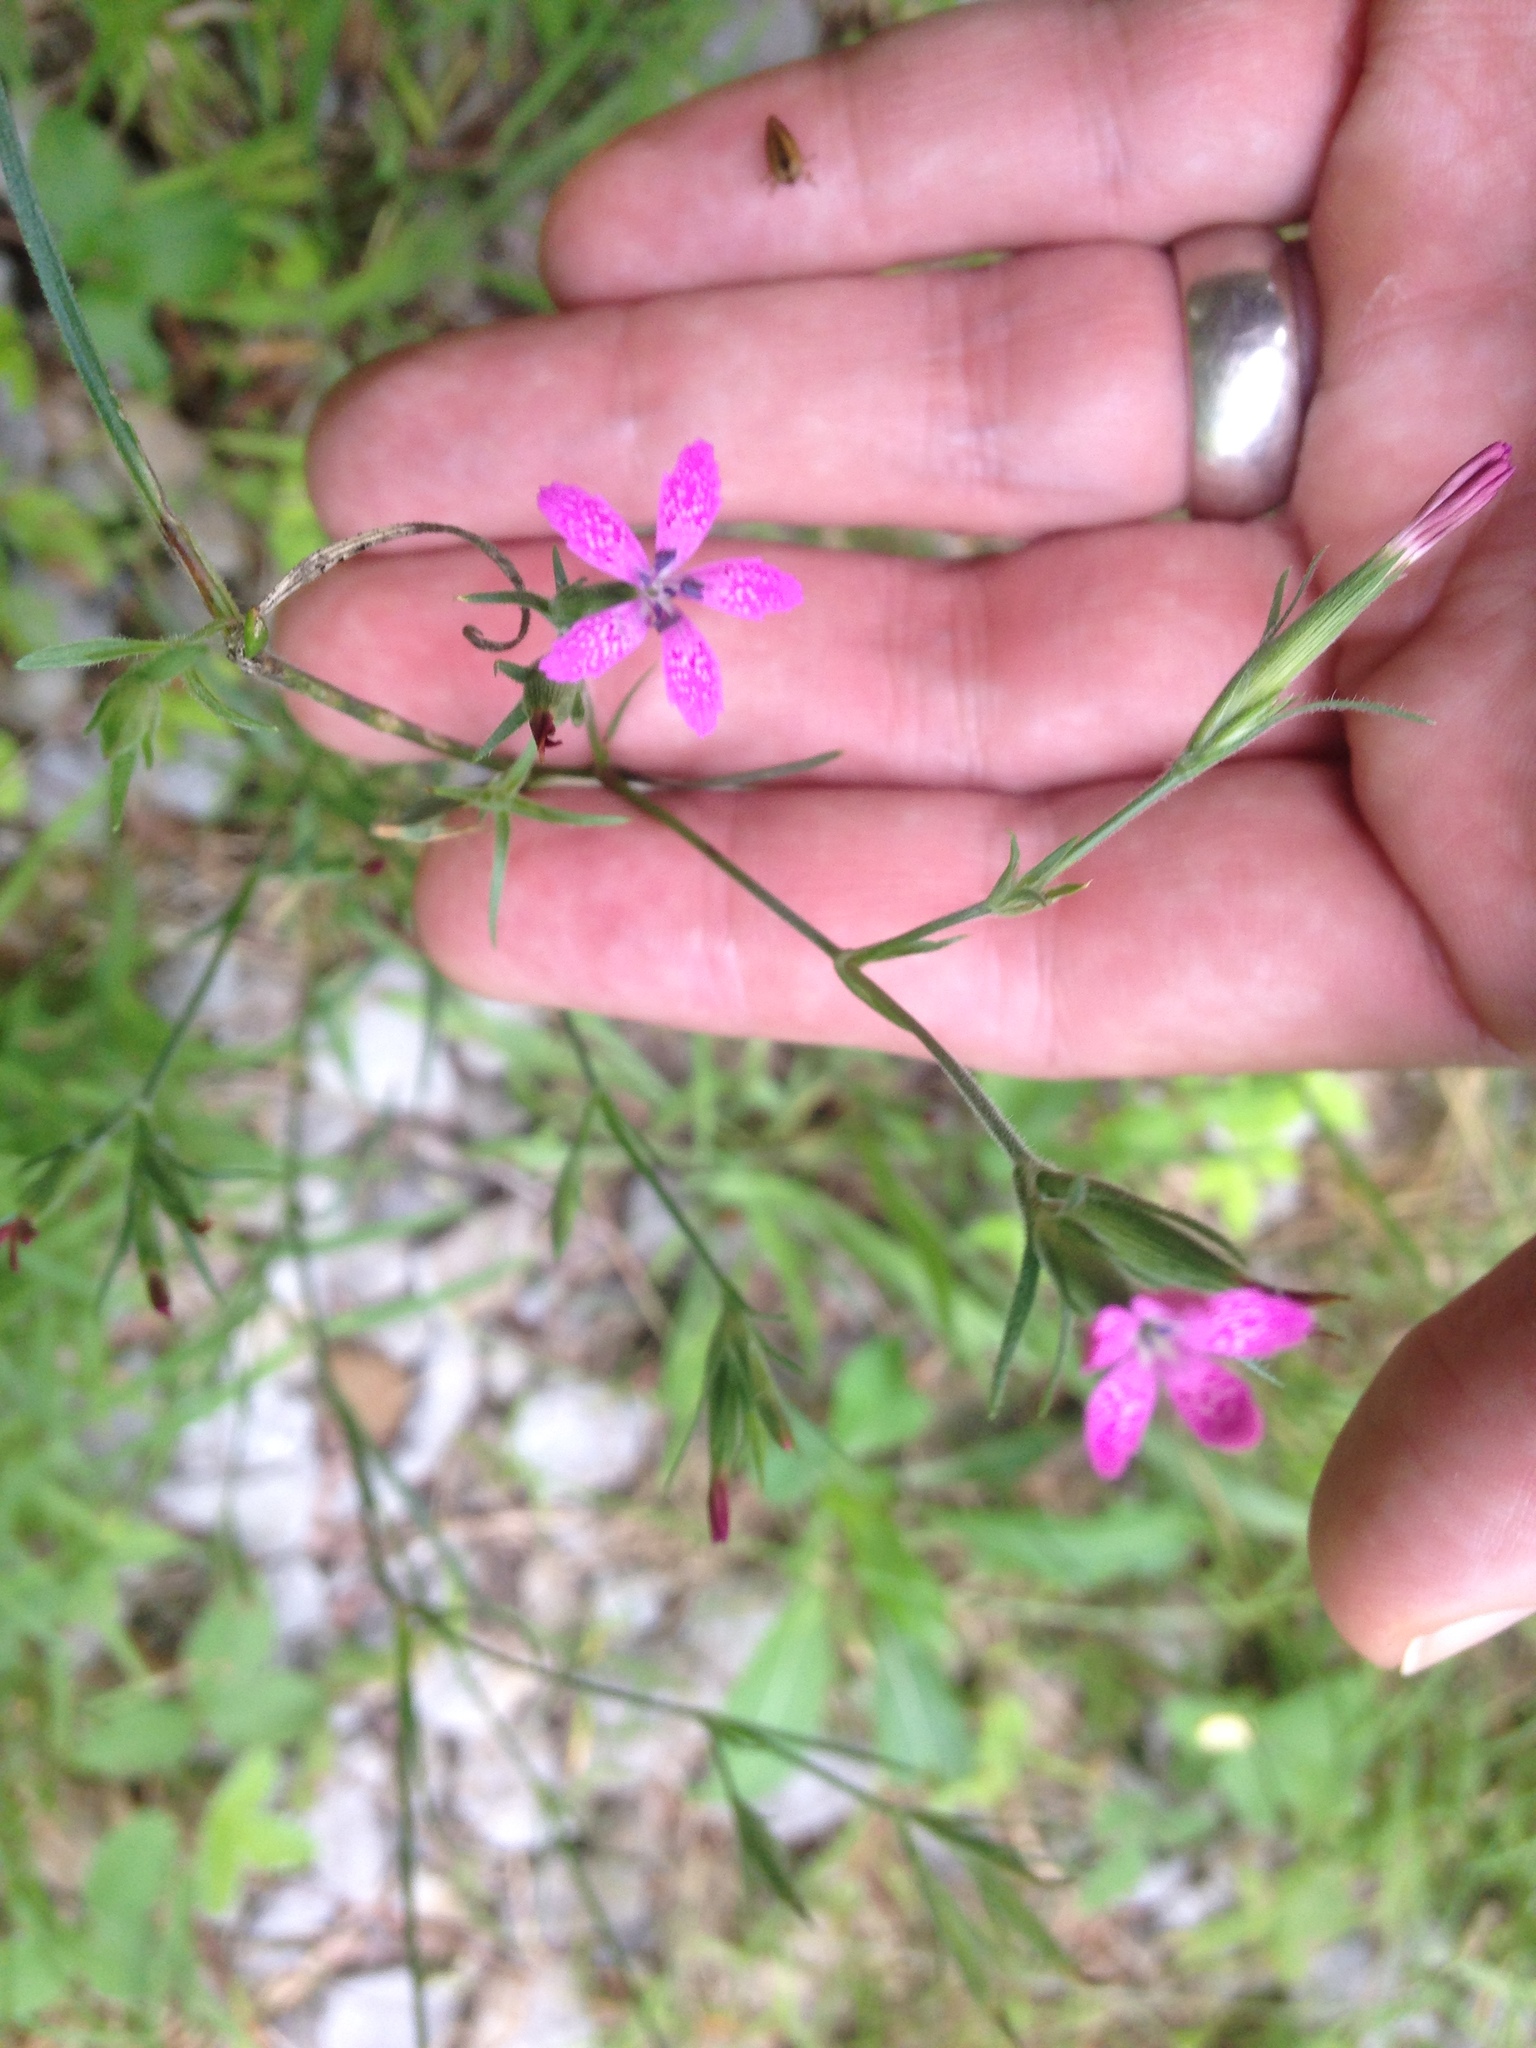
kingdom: Plantae
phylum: Tracheophyta
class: Magnoliopsida
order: Caryophyllales
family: Caryophyllaceae
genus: Dianthus
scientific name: Dianthus armeria
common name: Deptford pink
